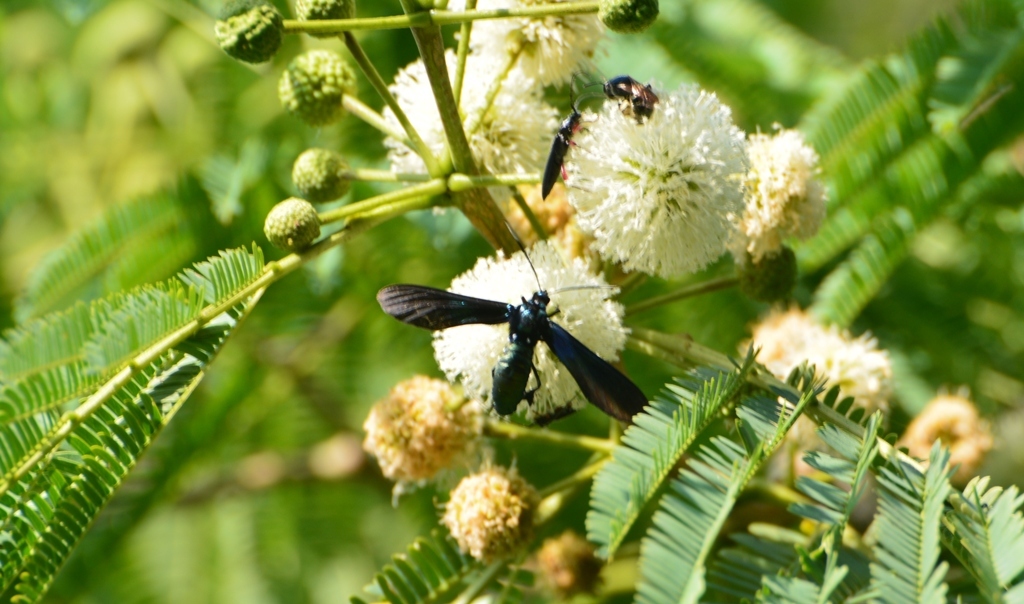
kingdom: Animalia
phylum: Arthropoda
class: Insecta
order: Lepidoptera
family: Erebidae
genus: Macrocneme
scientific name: Macrocneme chrysitis
